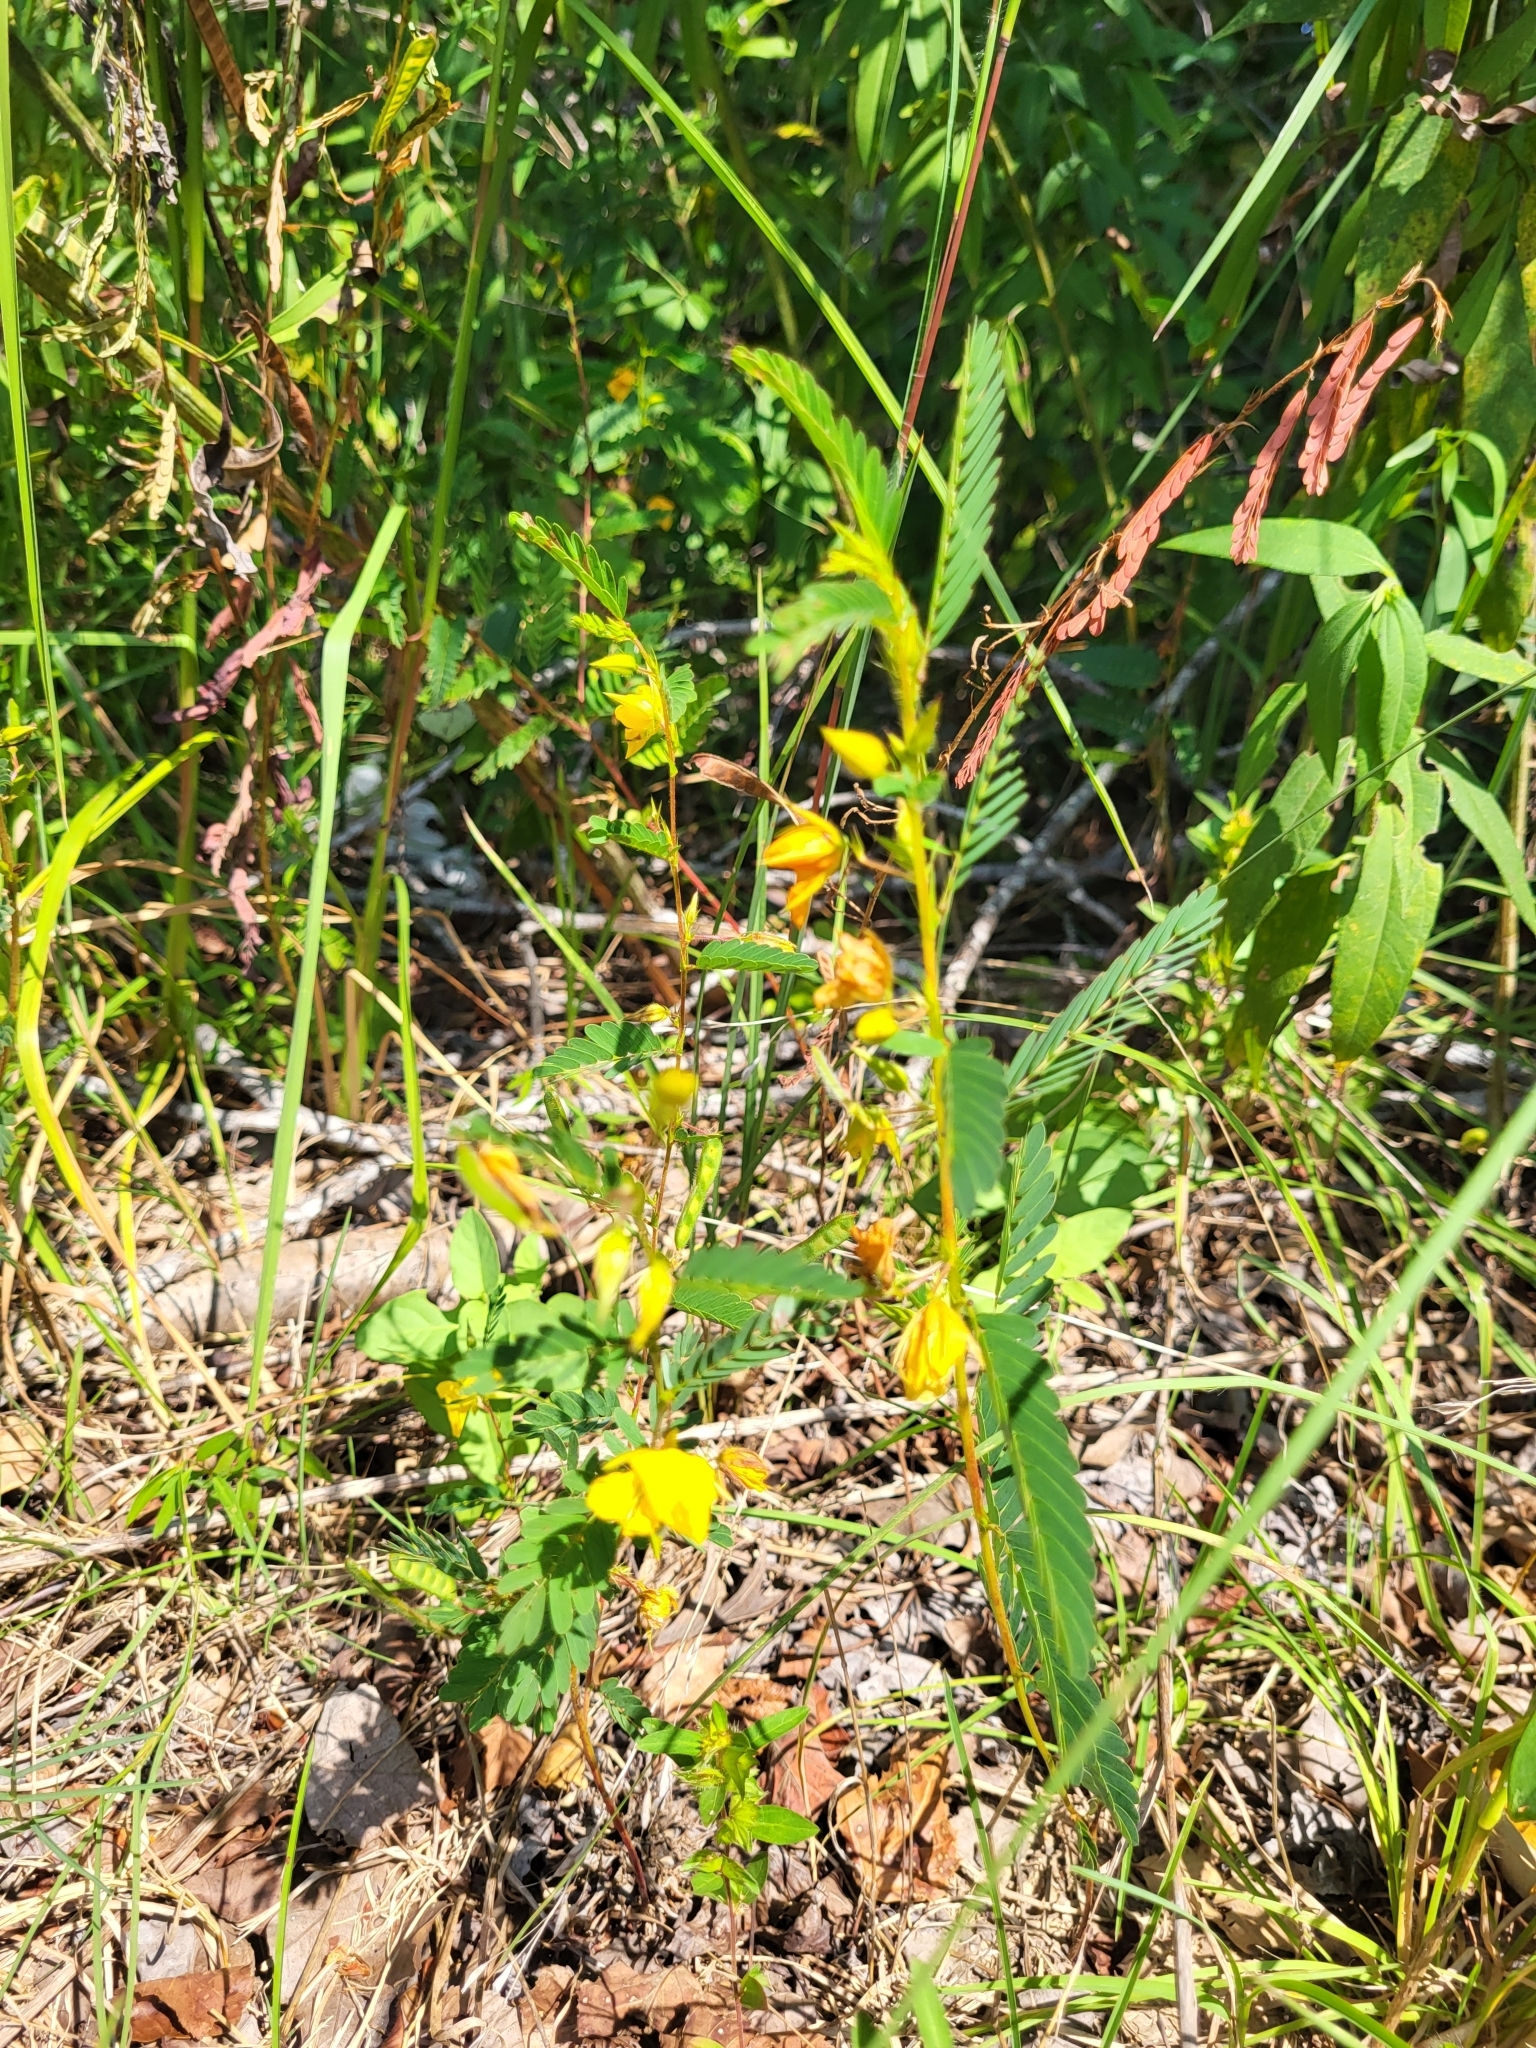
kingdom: Plantae
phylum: Tracheophyta
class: Magnoliopsida
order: Fabales
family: Fabaceae
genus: Chamaecrista
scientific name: Chamaecrista fasciculata
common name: Golden cassia
